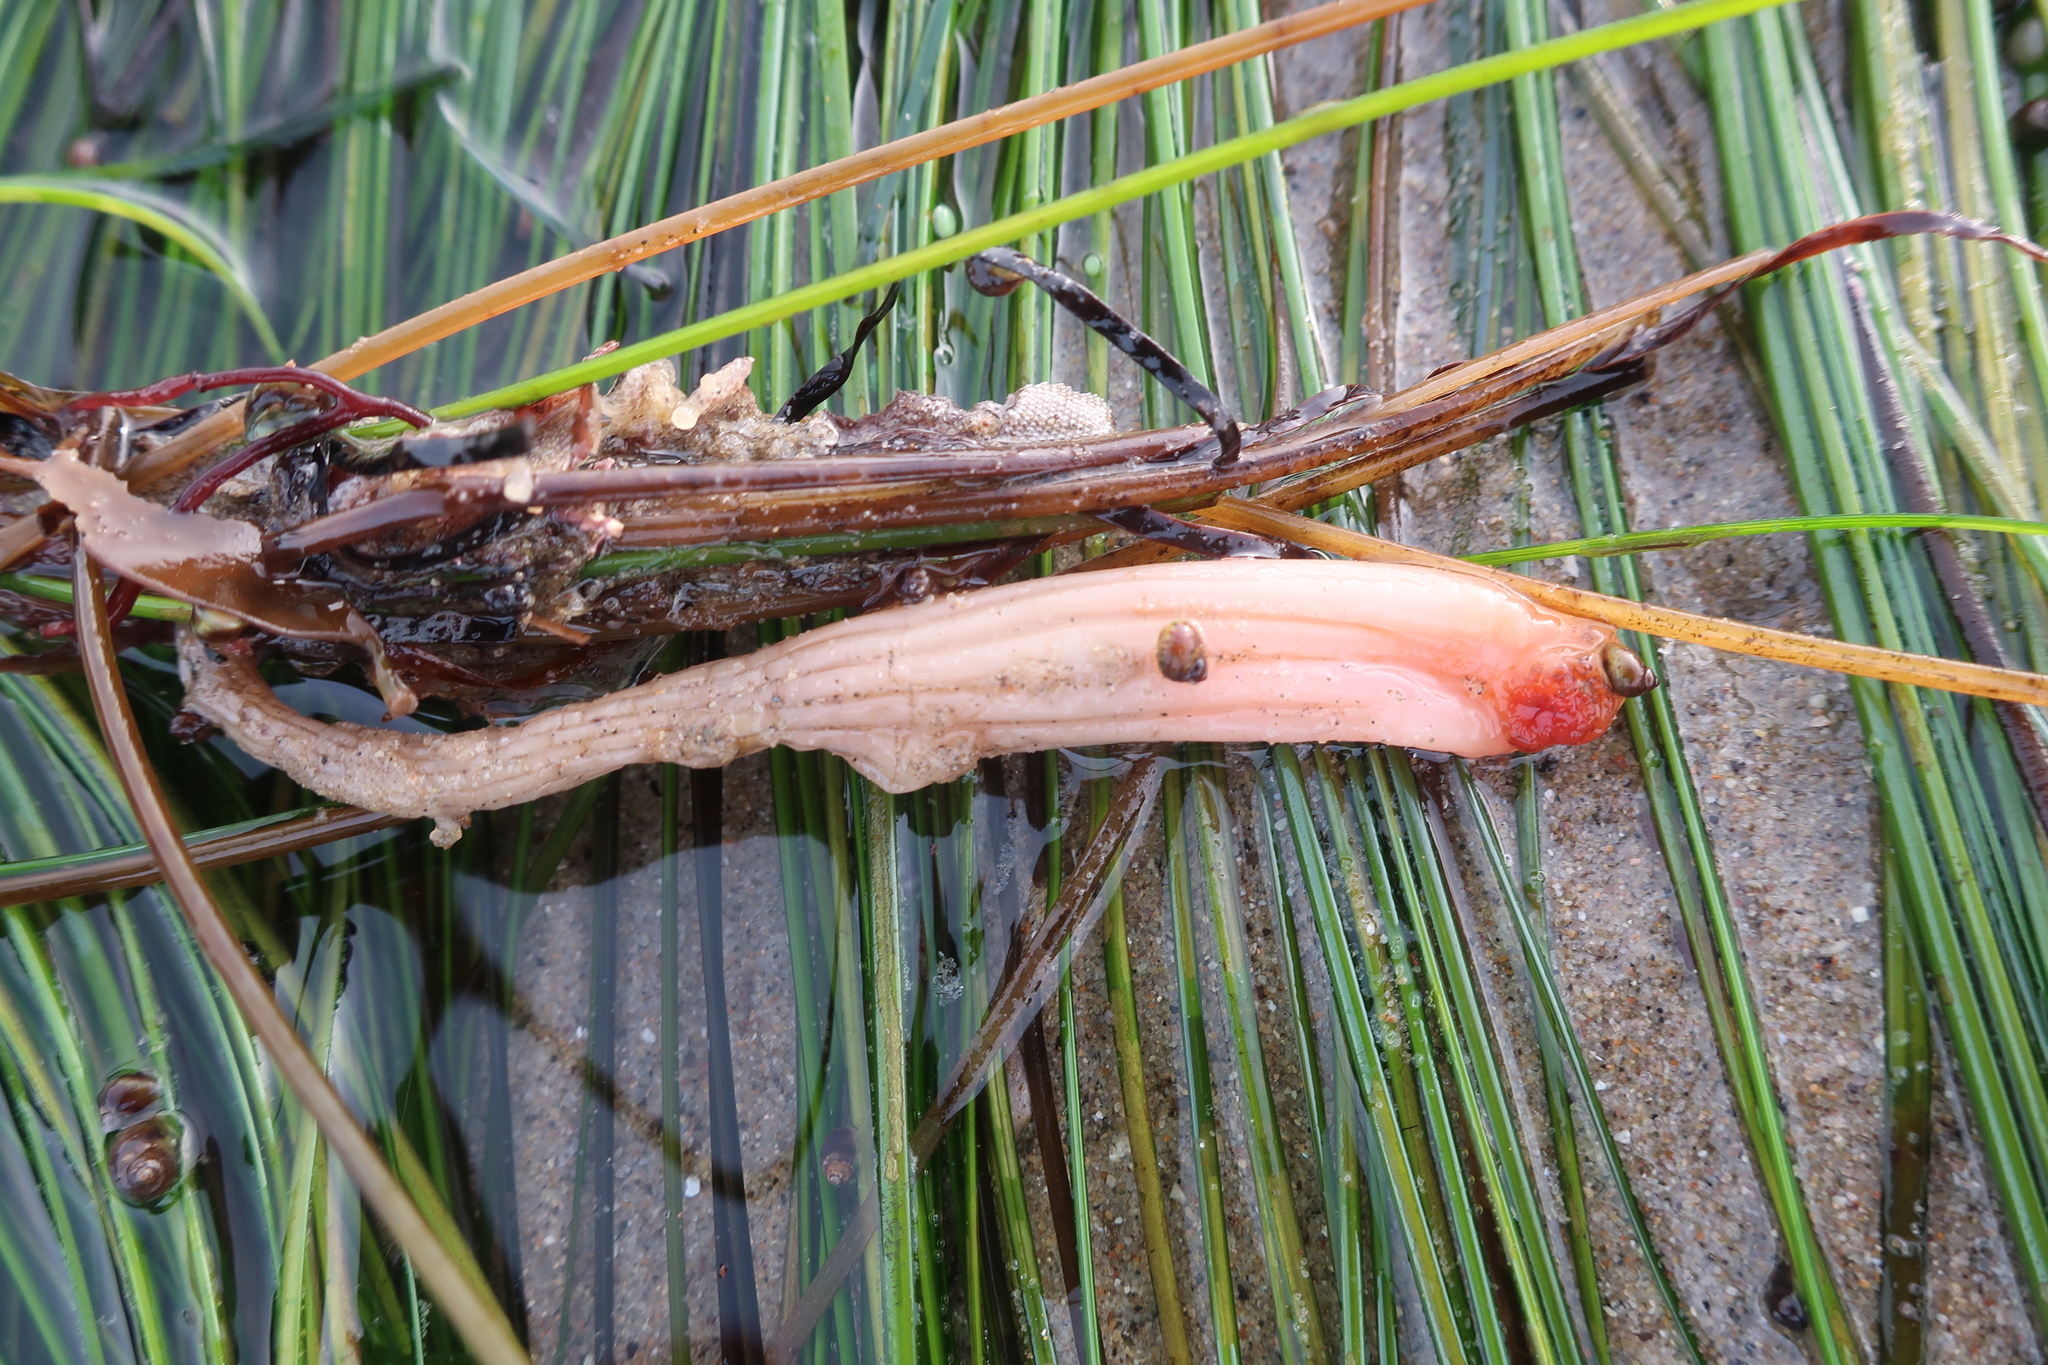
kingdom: Animalia
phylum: Chordata
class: Ascidiacea
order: Stolidobranchia
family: Styelidae
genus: Styela
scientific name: Styela montereyensis
